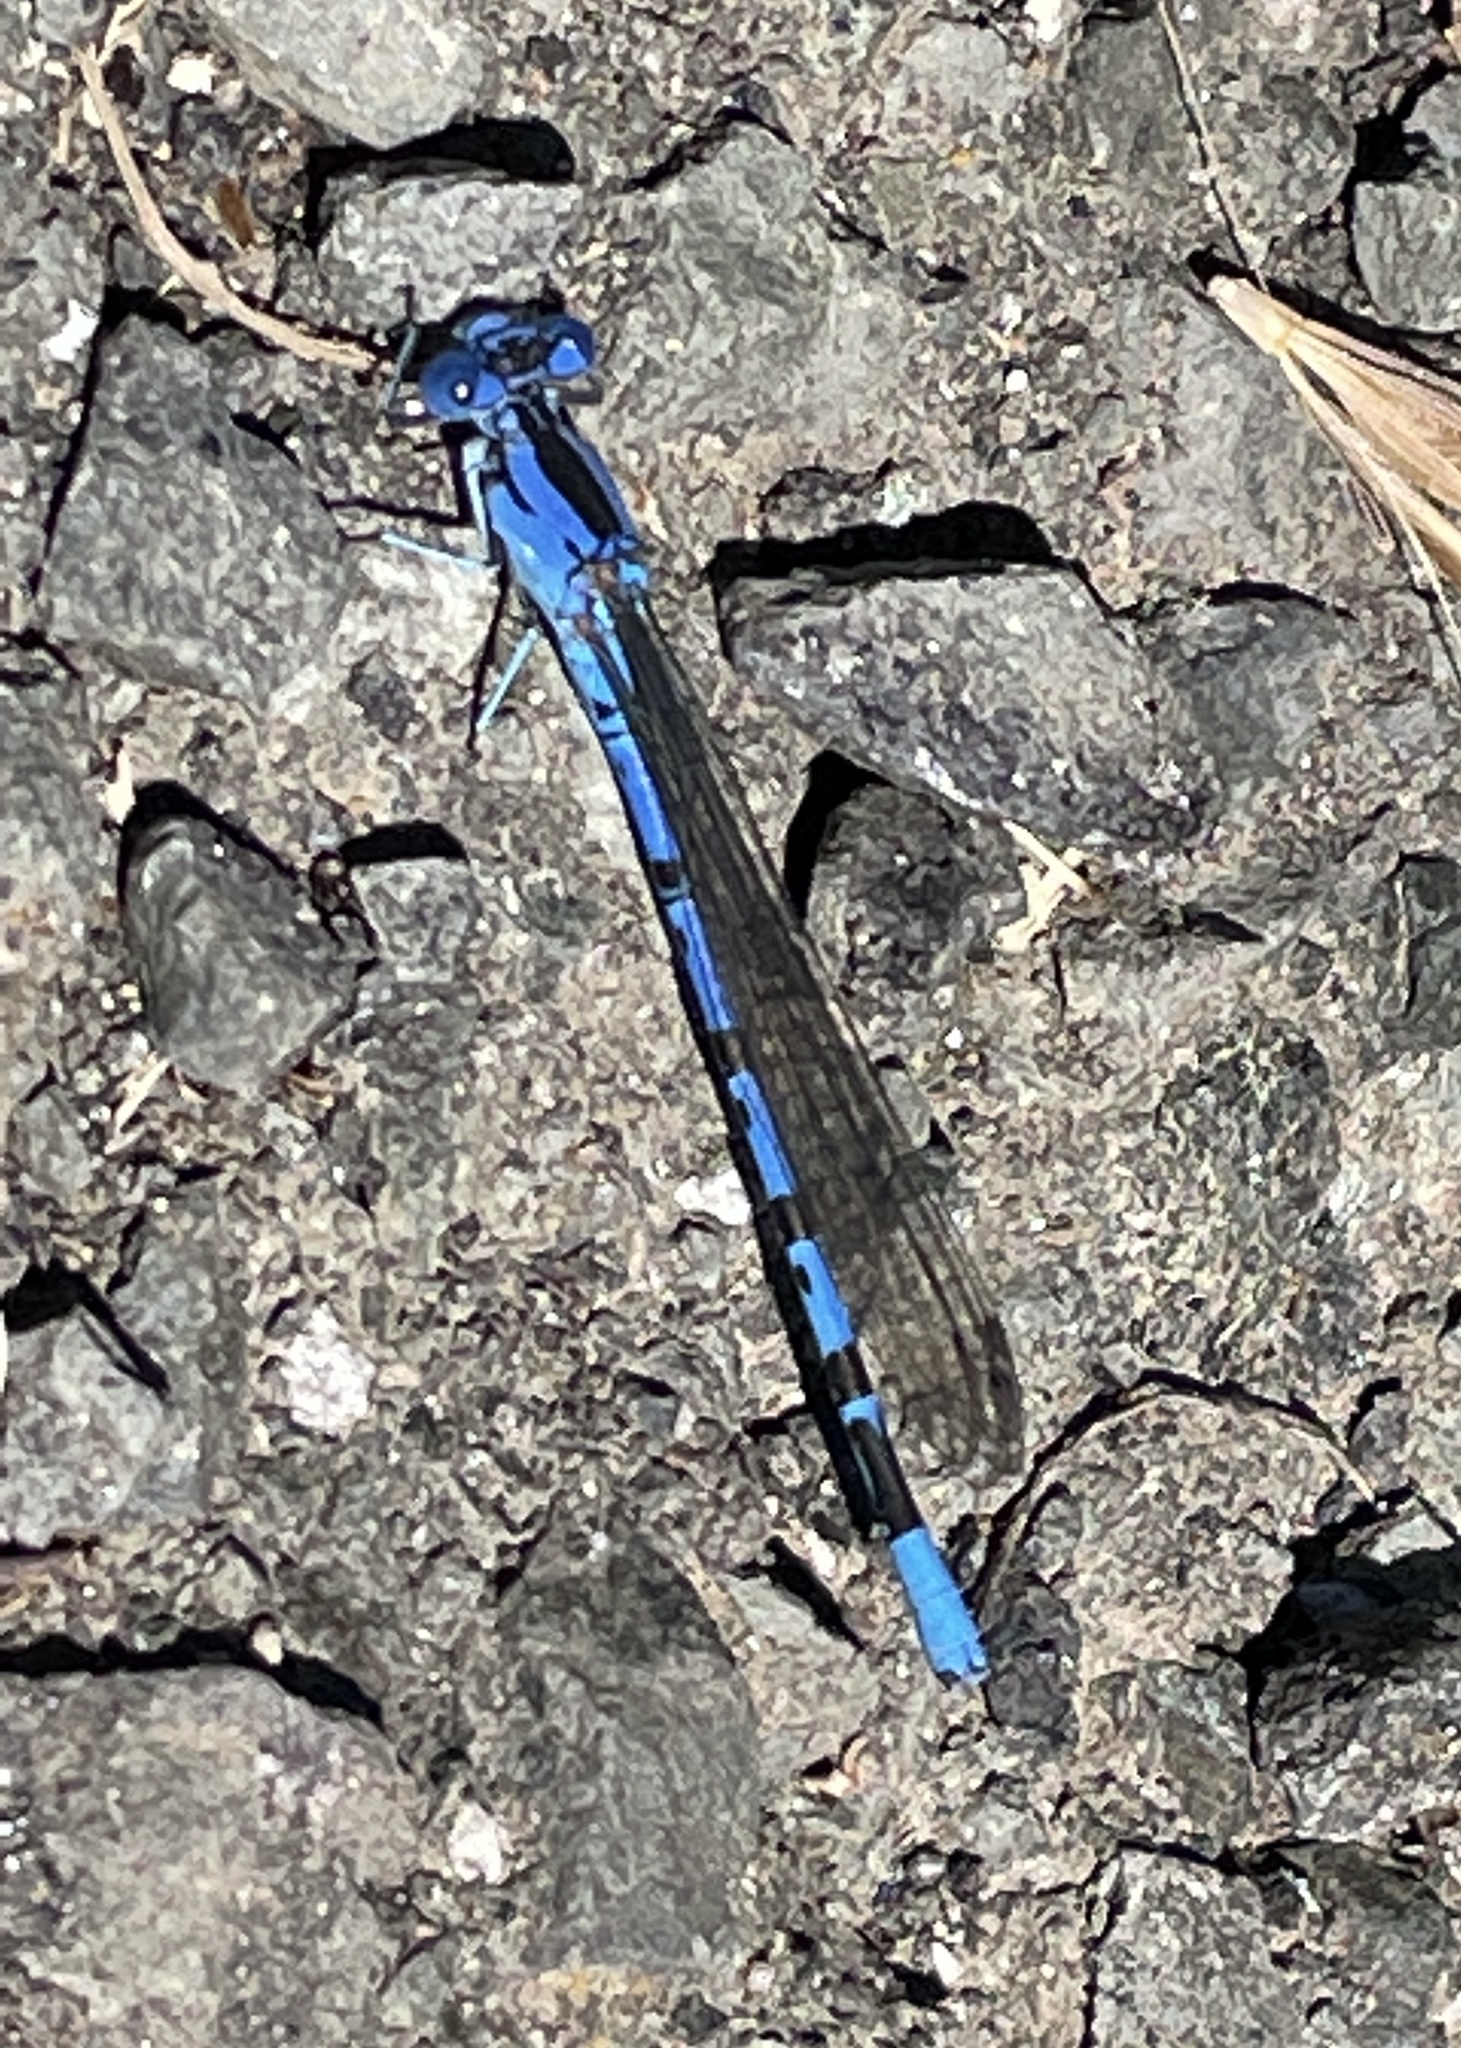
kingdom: Animalia
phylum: Arthropoda
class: Insecta
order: Odonata
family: Coenagrionidae
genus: Argia
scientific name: Argia vivida
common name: Vivid dancer
